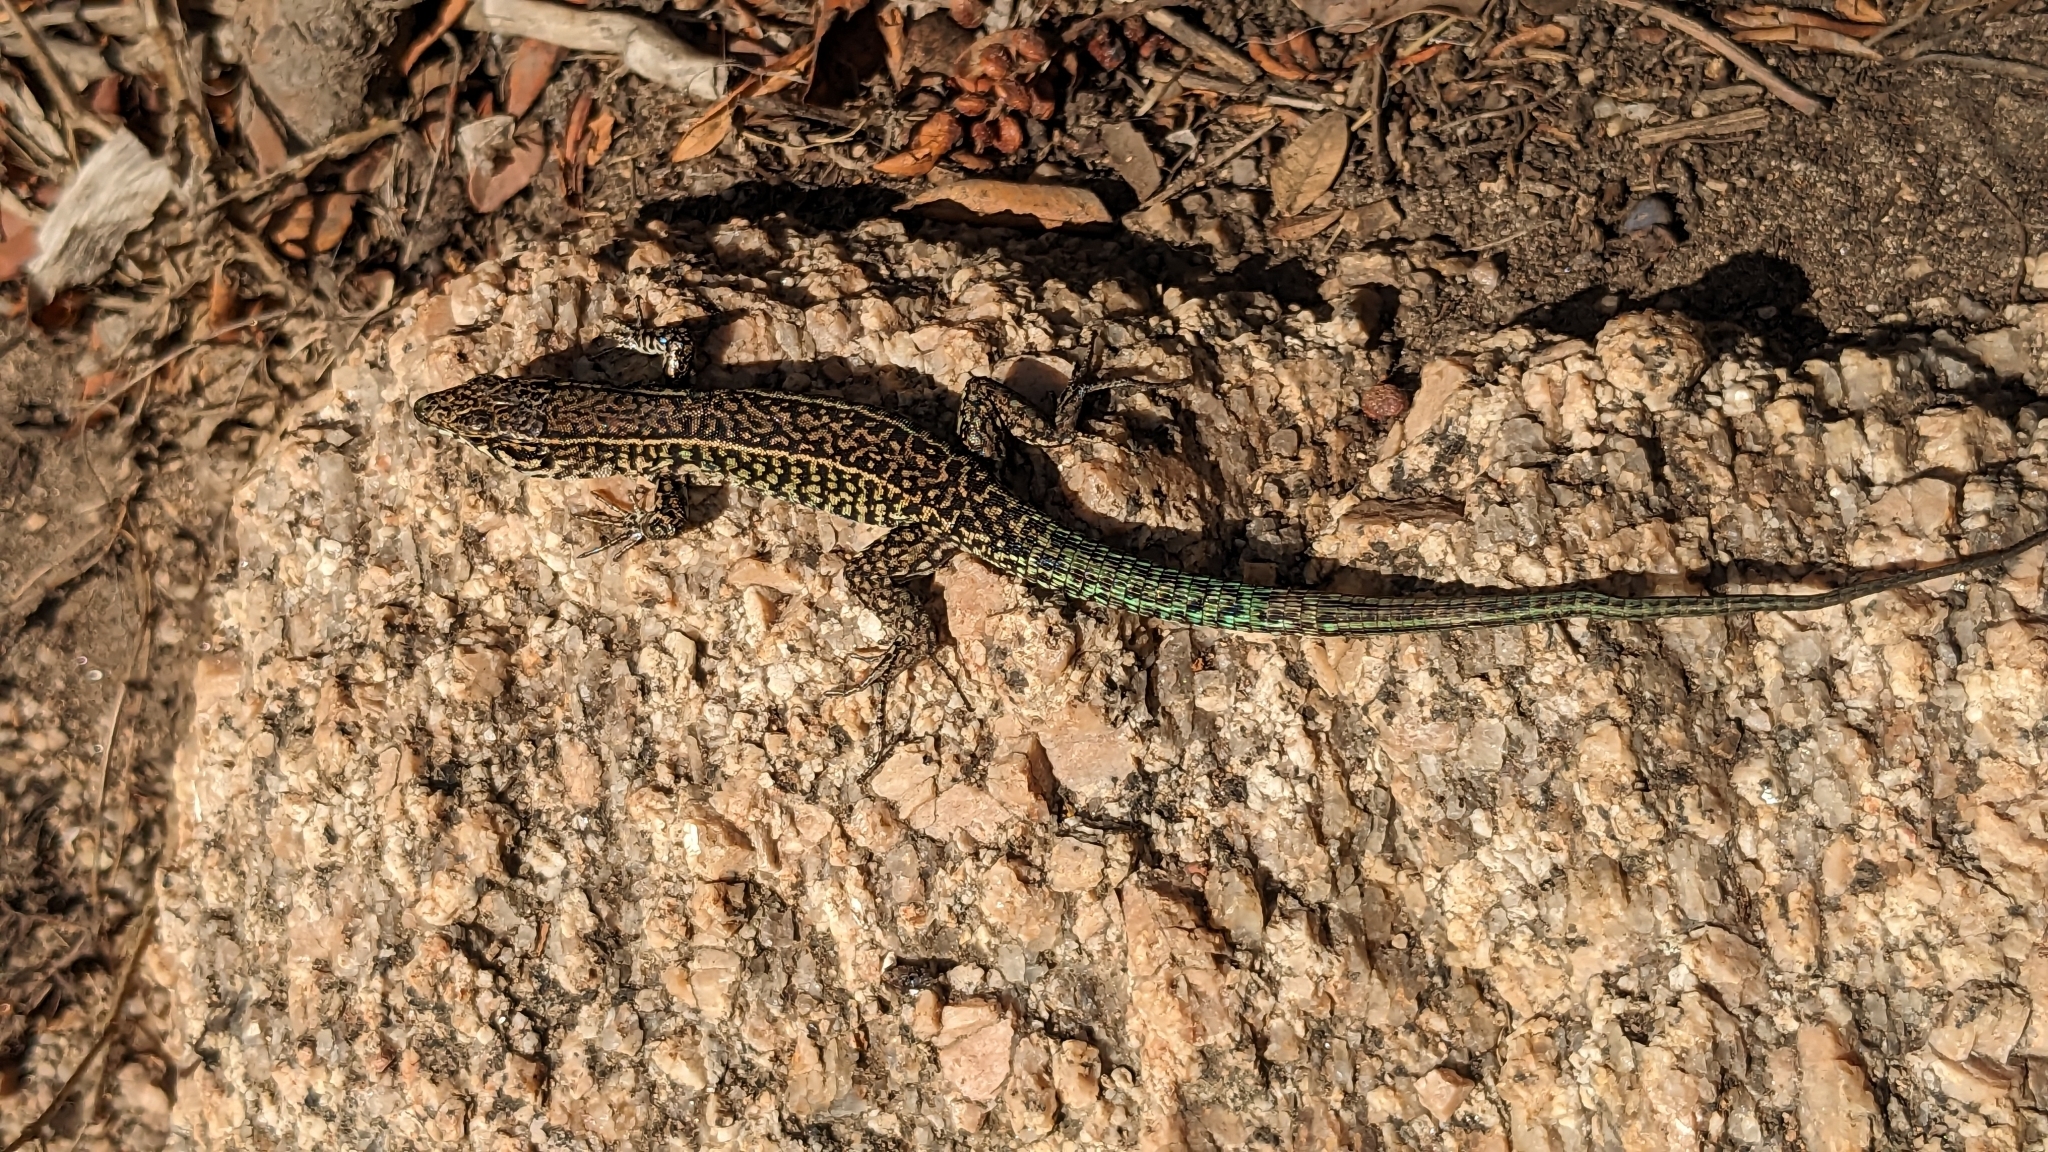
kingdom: Animalia
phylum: Chordata
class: Squamata
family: Lacertidae
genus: Podarcis
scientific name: Podarcis tiliguerta
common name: Tyrrhenian wall lizard
